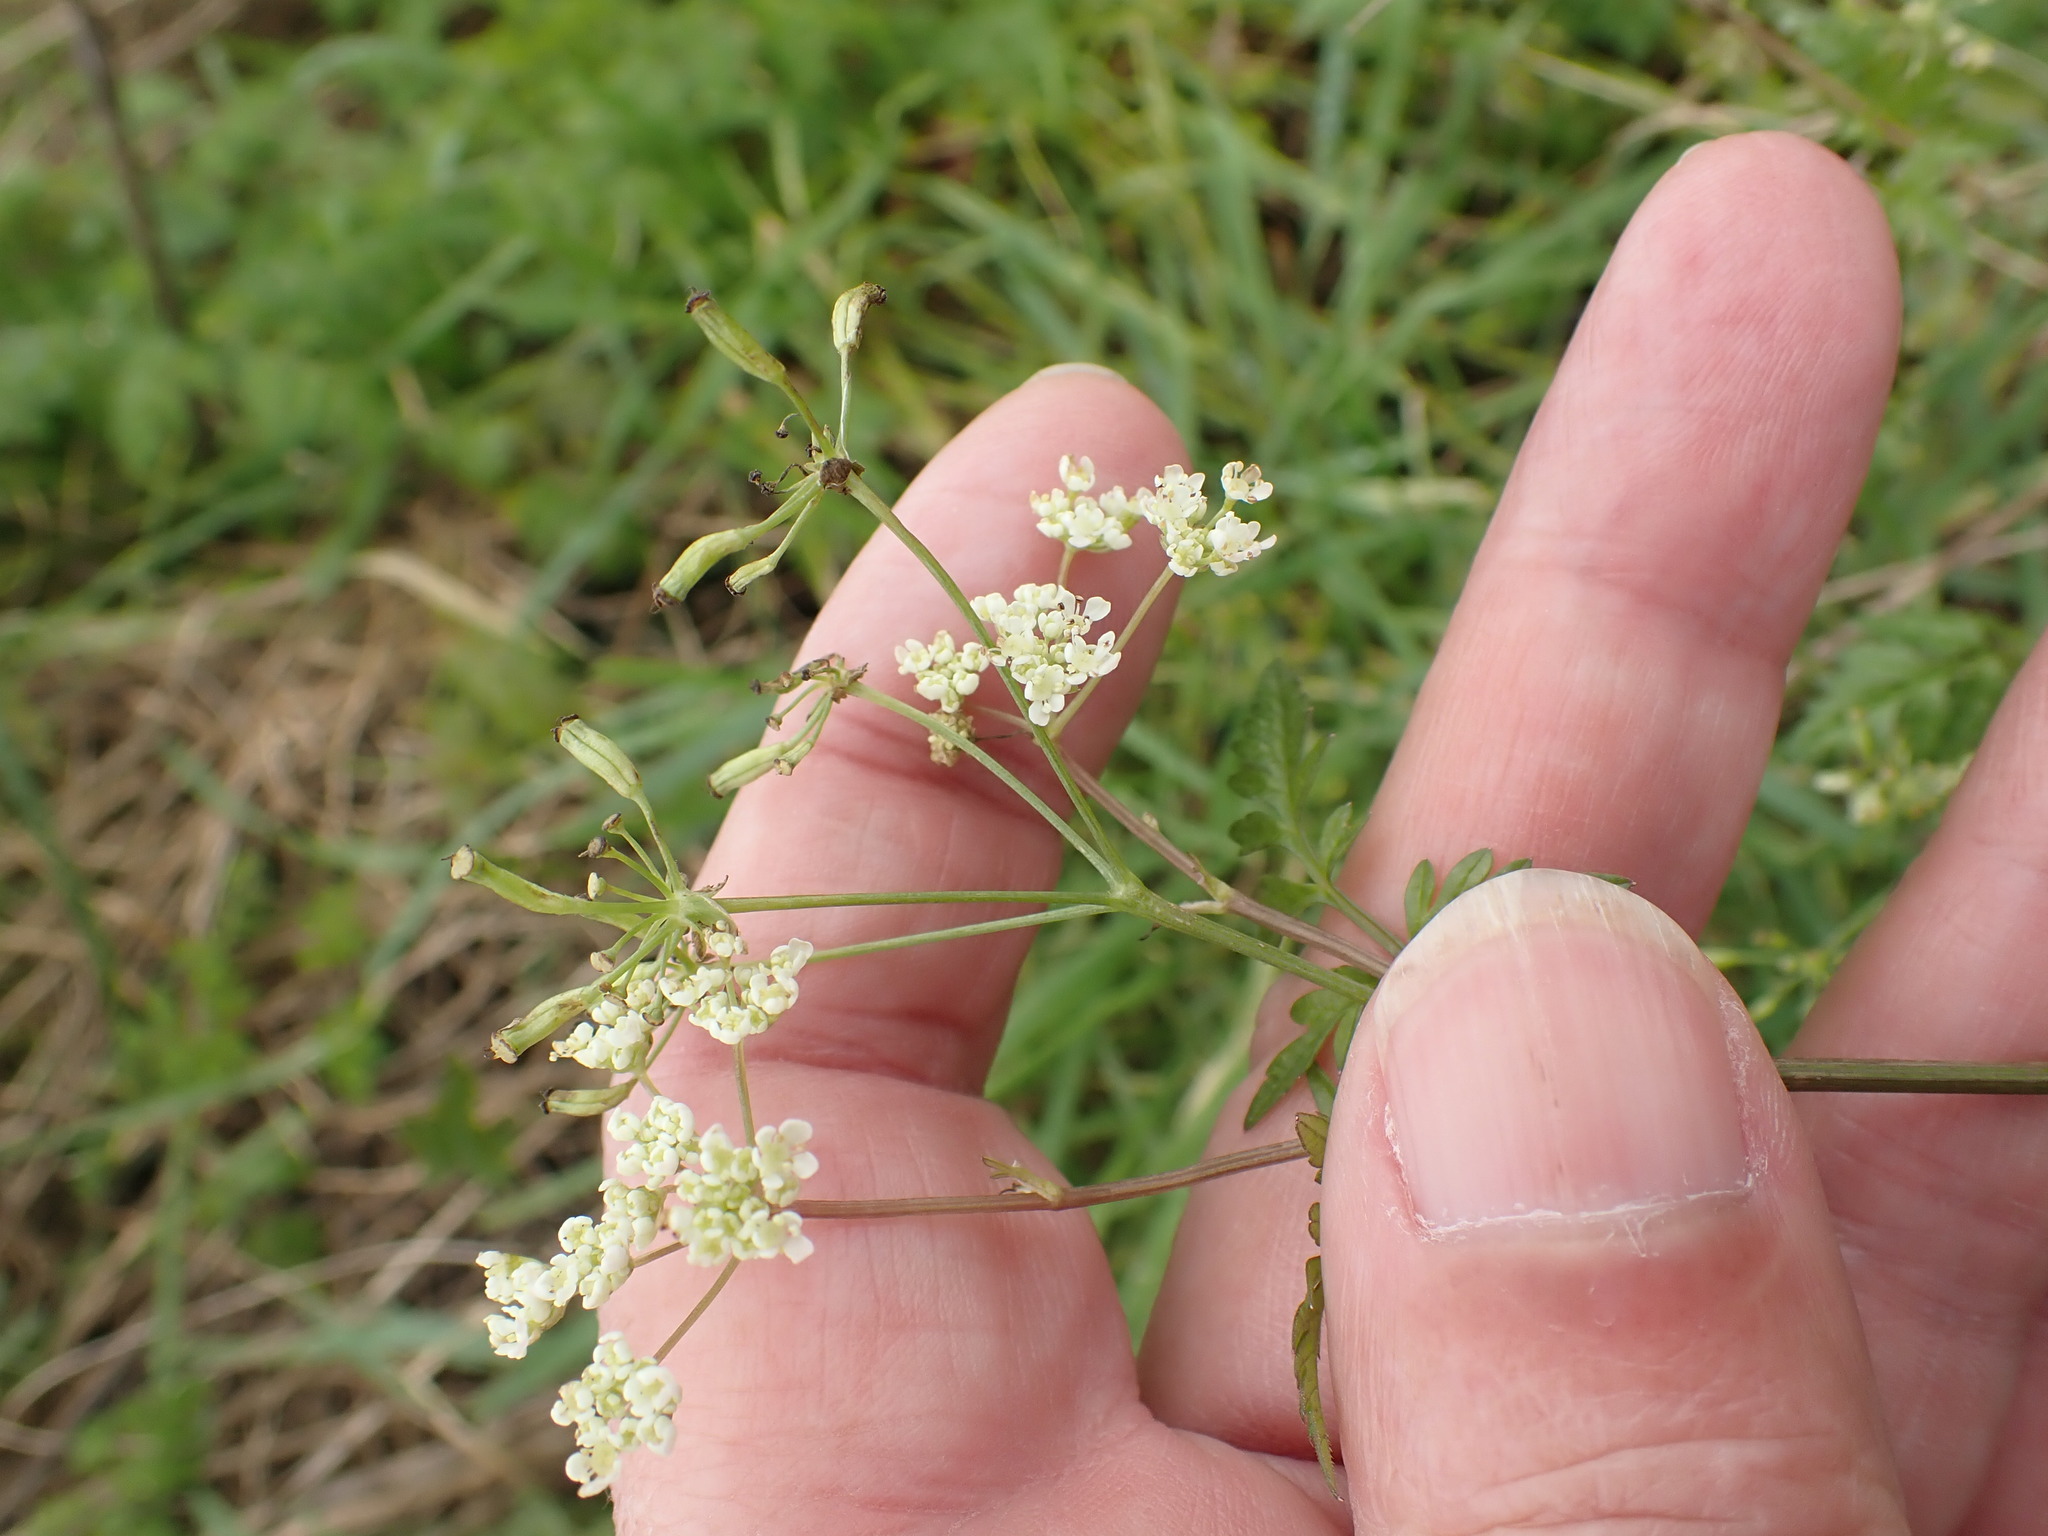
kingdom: Plantae
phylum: Tracheophyta
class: Magnoliopsida
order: Apiales
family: Apiaceae
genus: Anthriscus
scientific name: Anthriscus sylvestris
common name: Cow parsley
